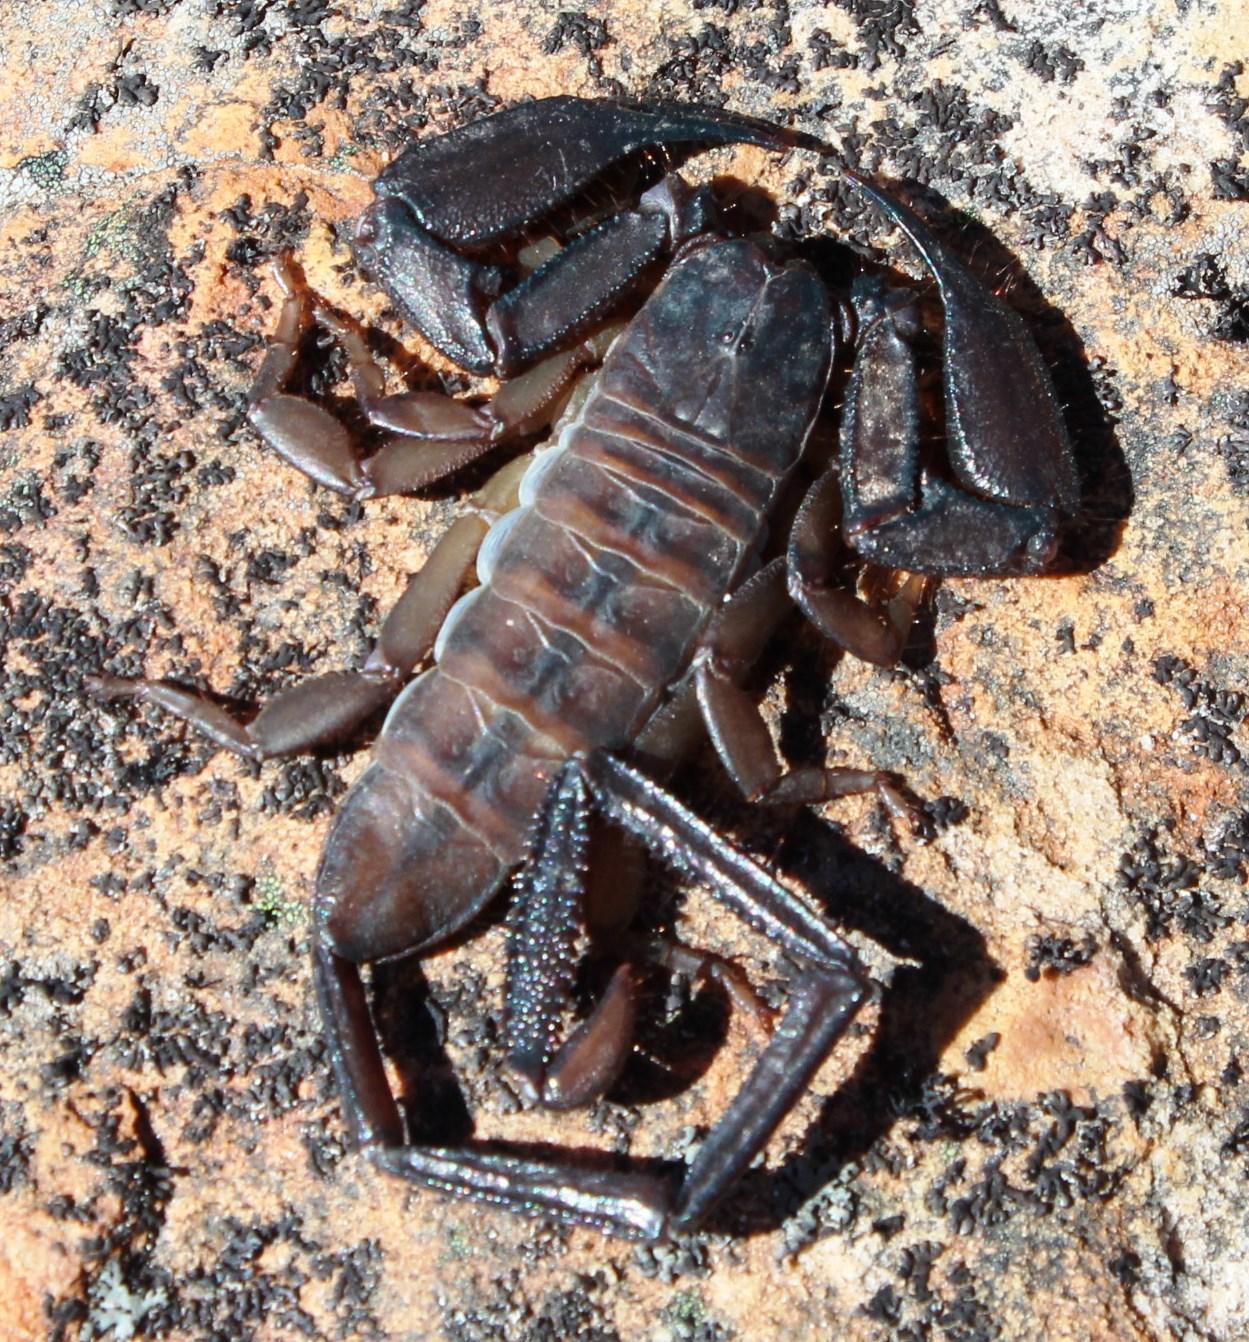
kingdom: Animalia
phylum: Arthropoda
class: Arachnida
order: Scorpiones
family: Hormuridae
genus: Hadogenes
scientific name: Hadogenes minor
